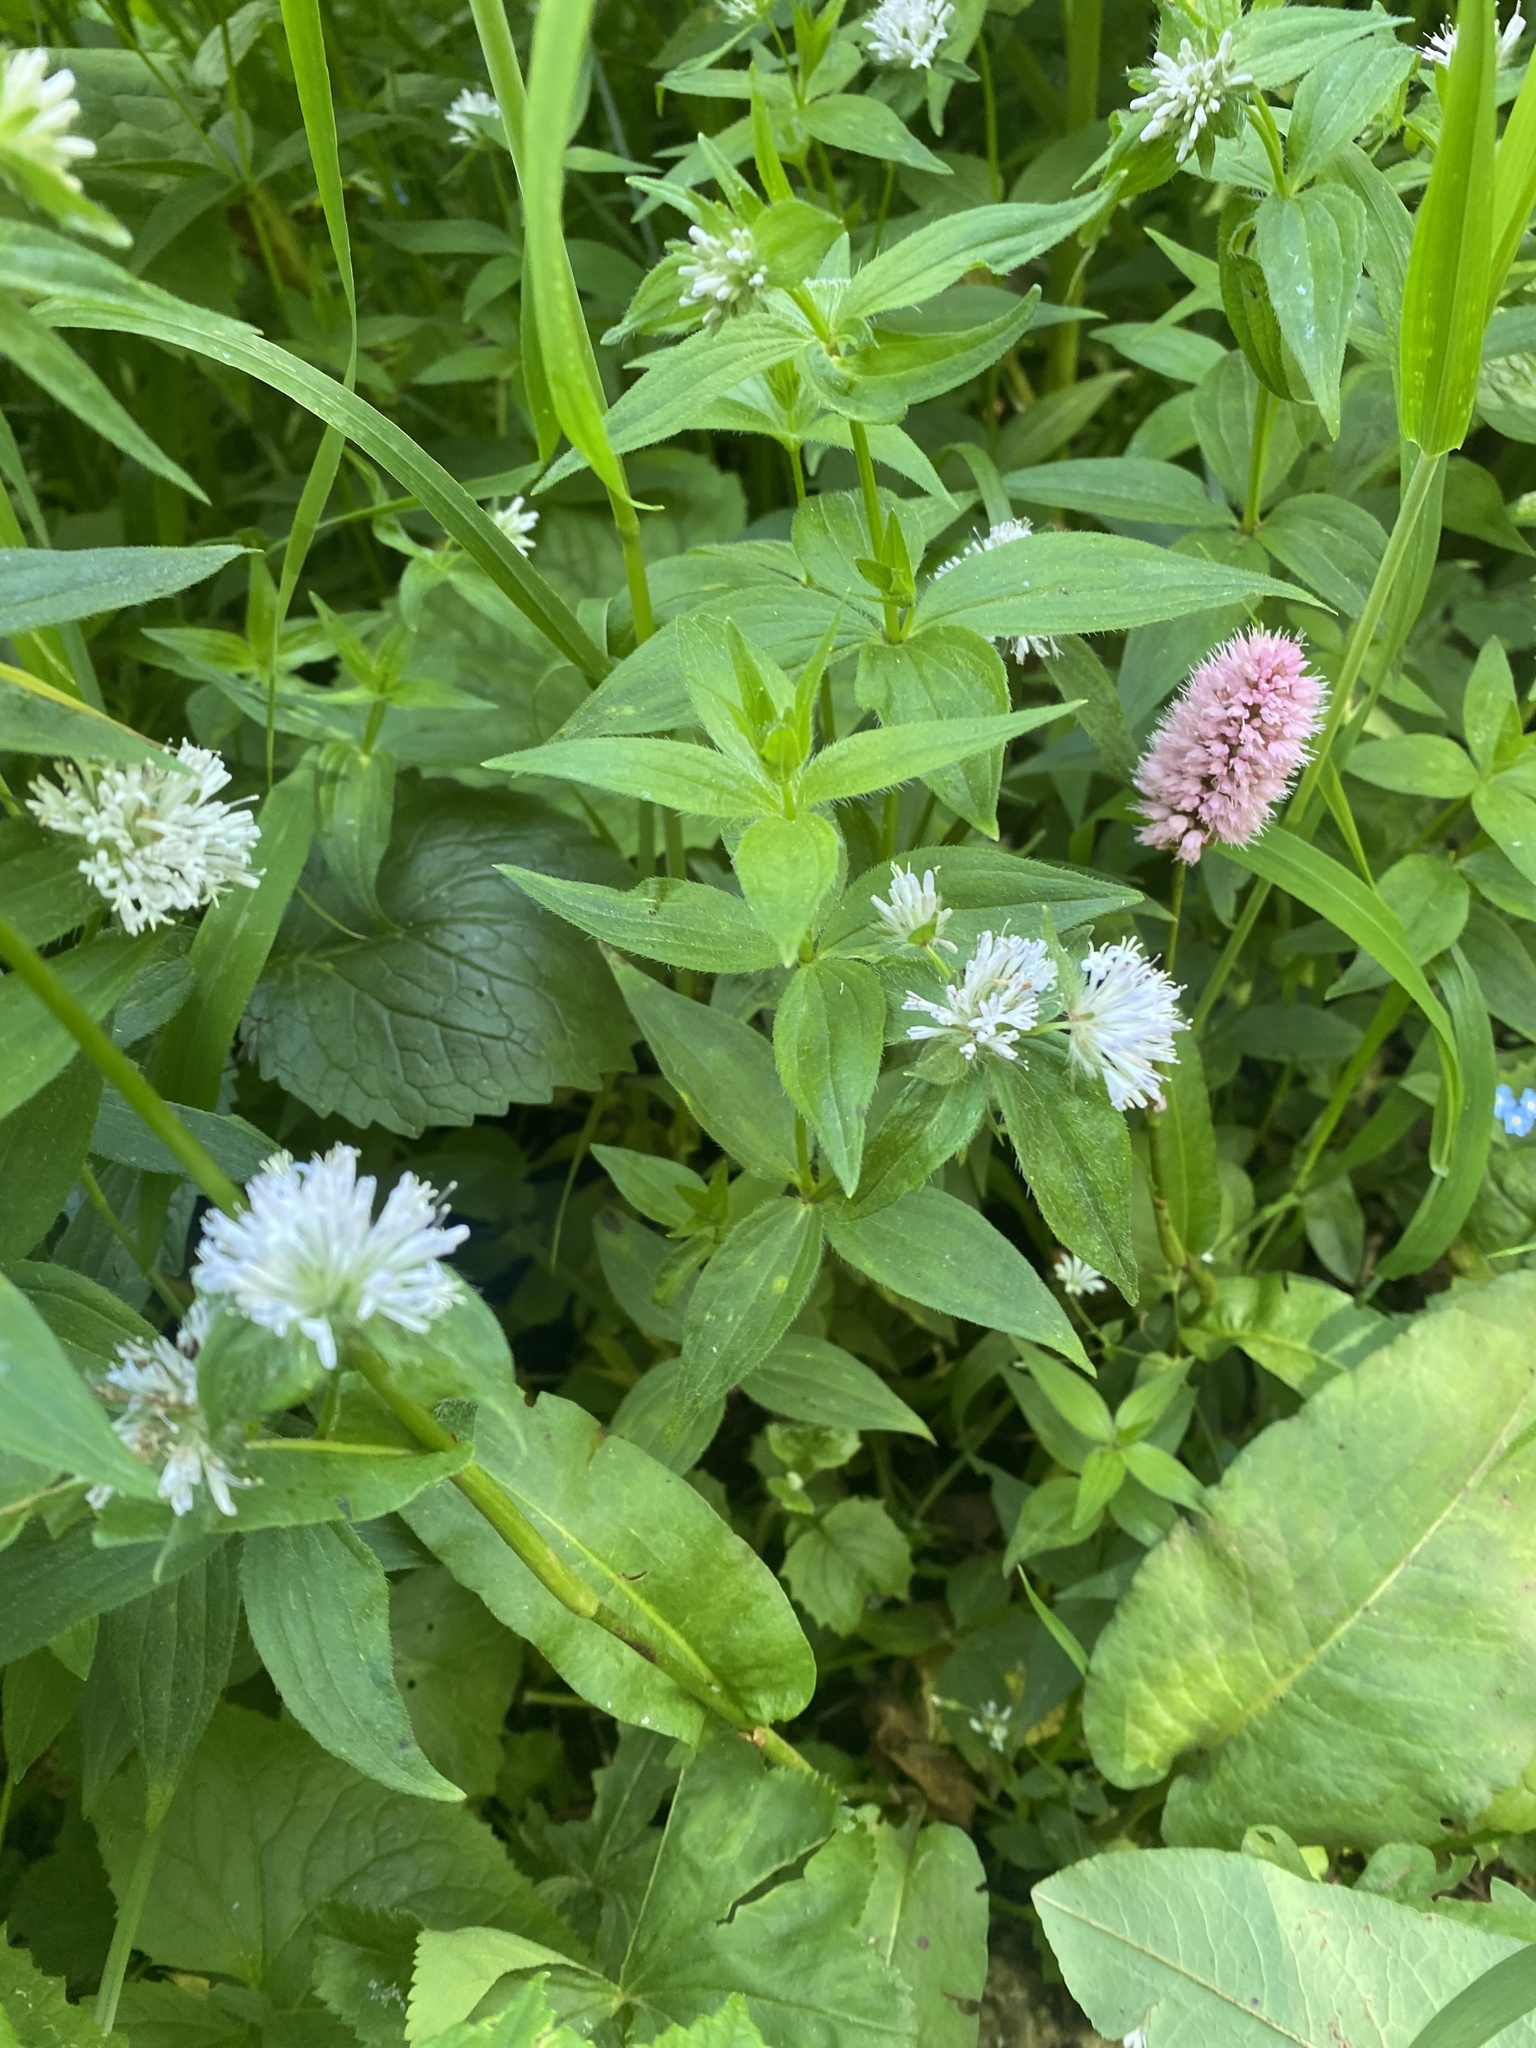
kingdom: Plantae
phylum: Tracheophyta
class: Magnoliopsida
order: Gentianales
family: Rubiaceae
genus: Asperula
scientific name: Asperula taurina
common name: Pink woodruff
